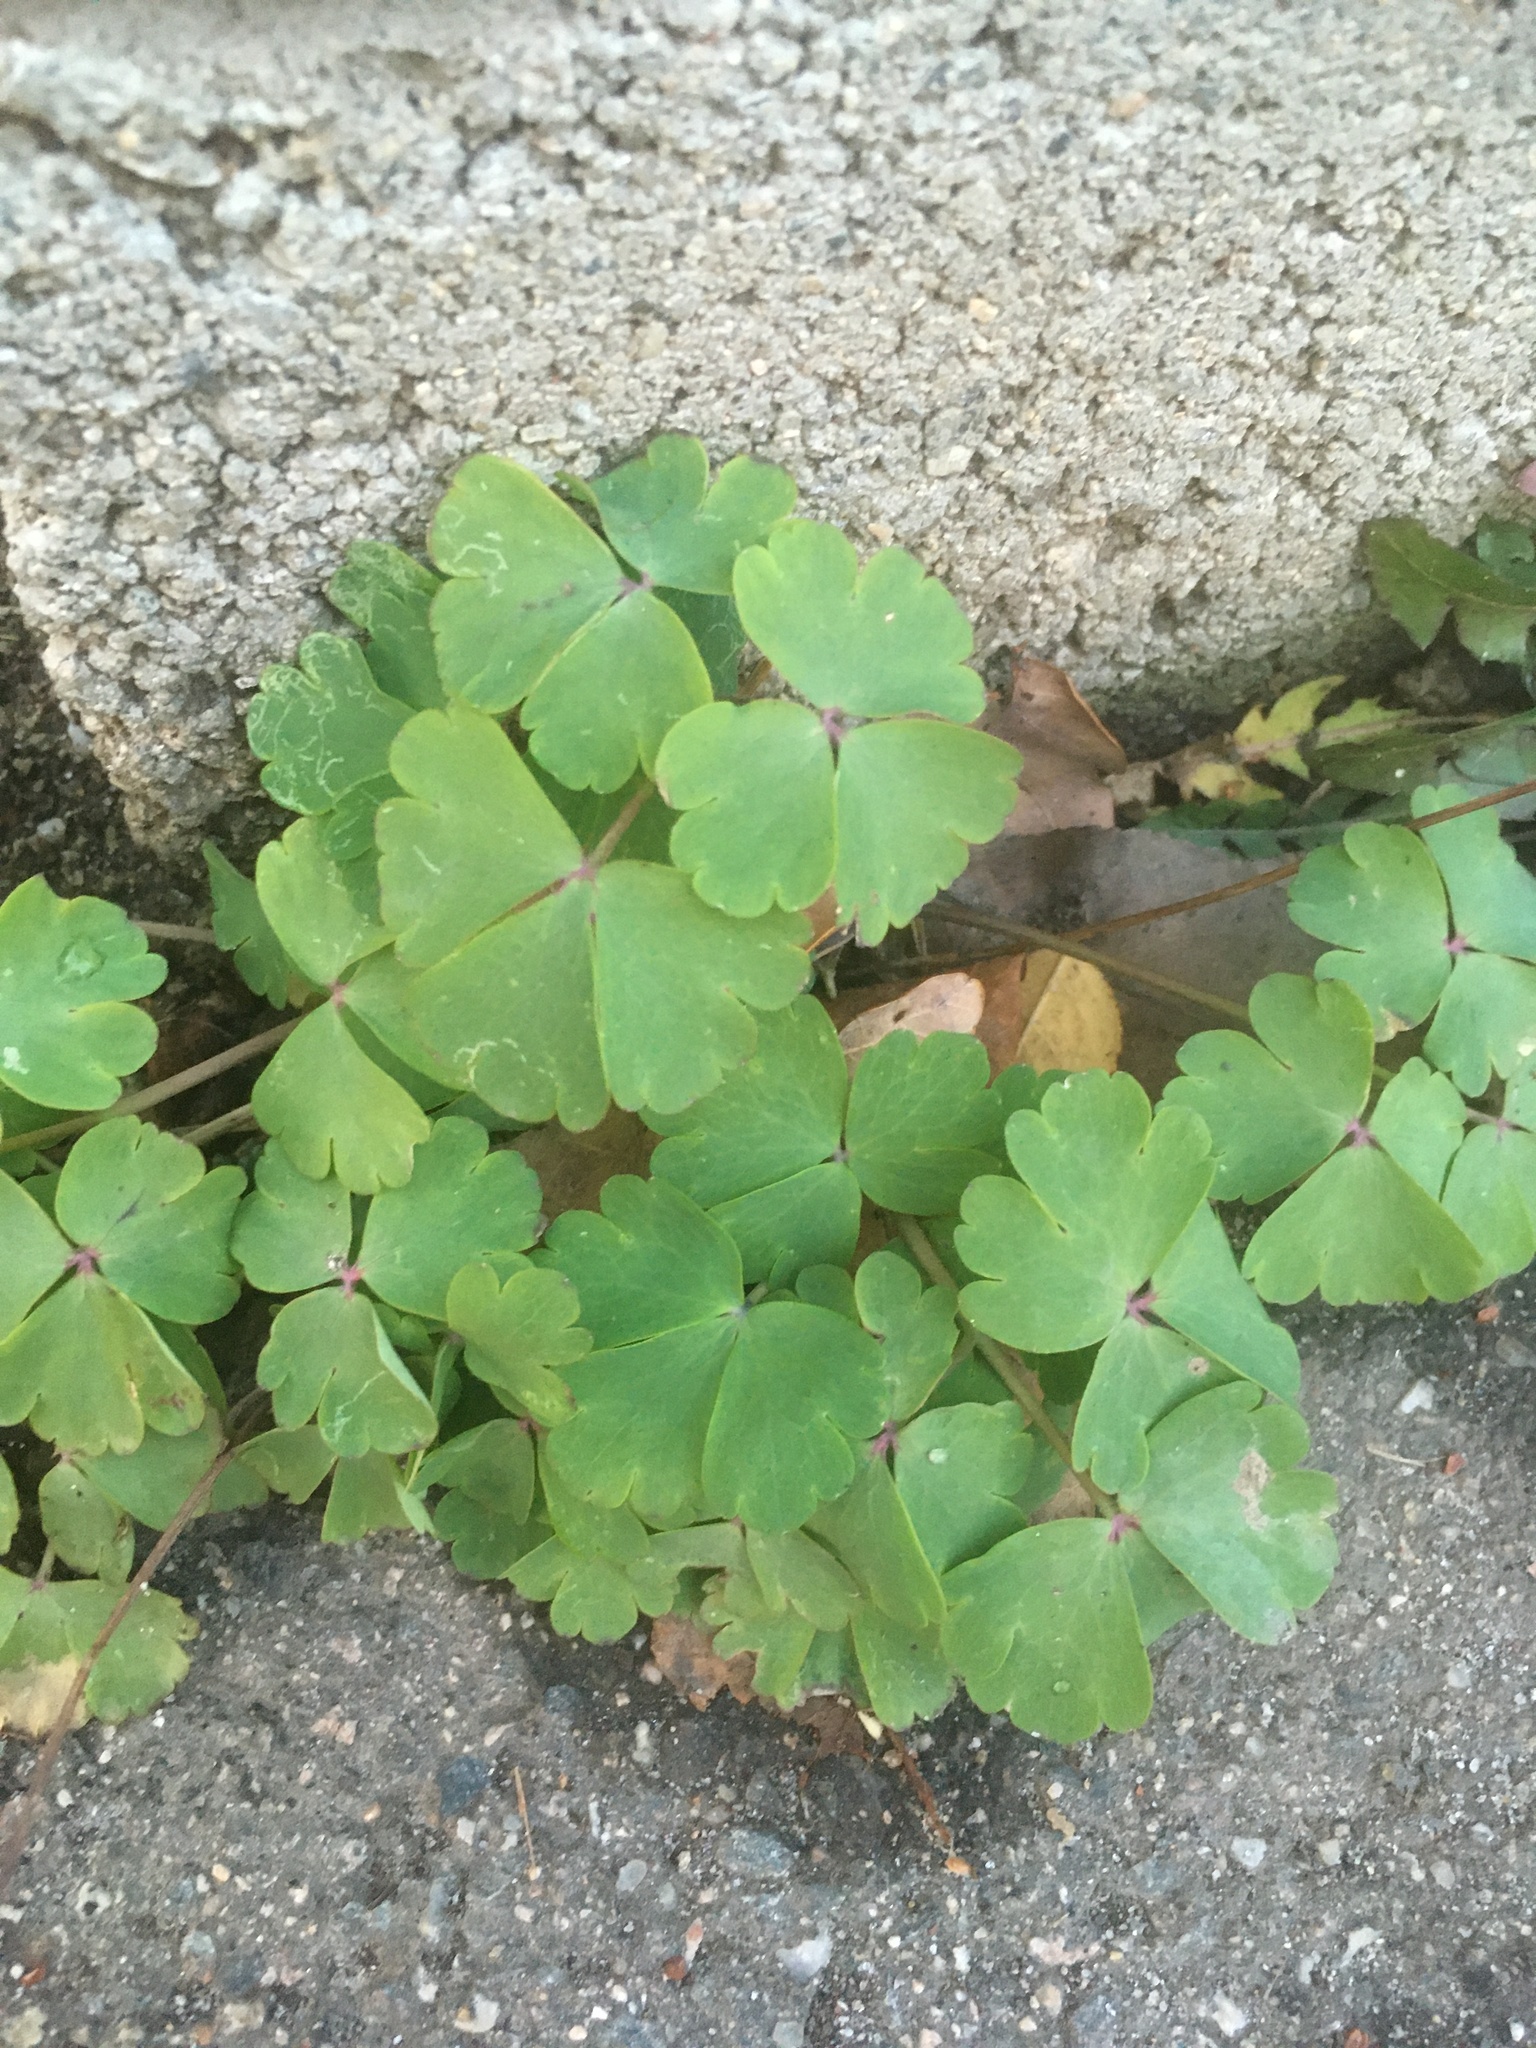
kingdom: Plantae
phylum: Tracheophyta
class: Magnoliopsida
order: Ranunculales
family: Ranunculaceae
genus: Aquilegia
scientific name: Aquilegia vulgaris
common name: Columbine
